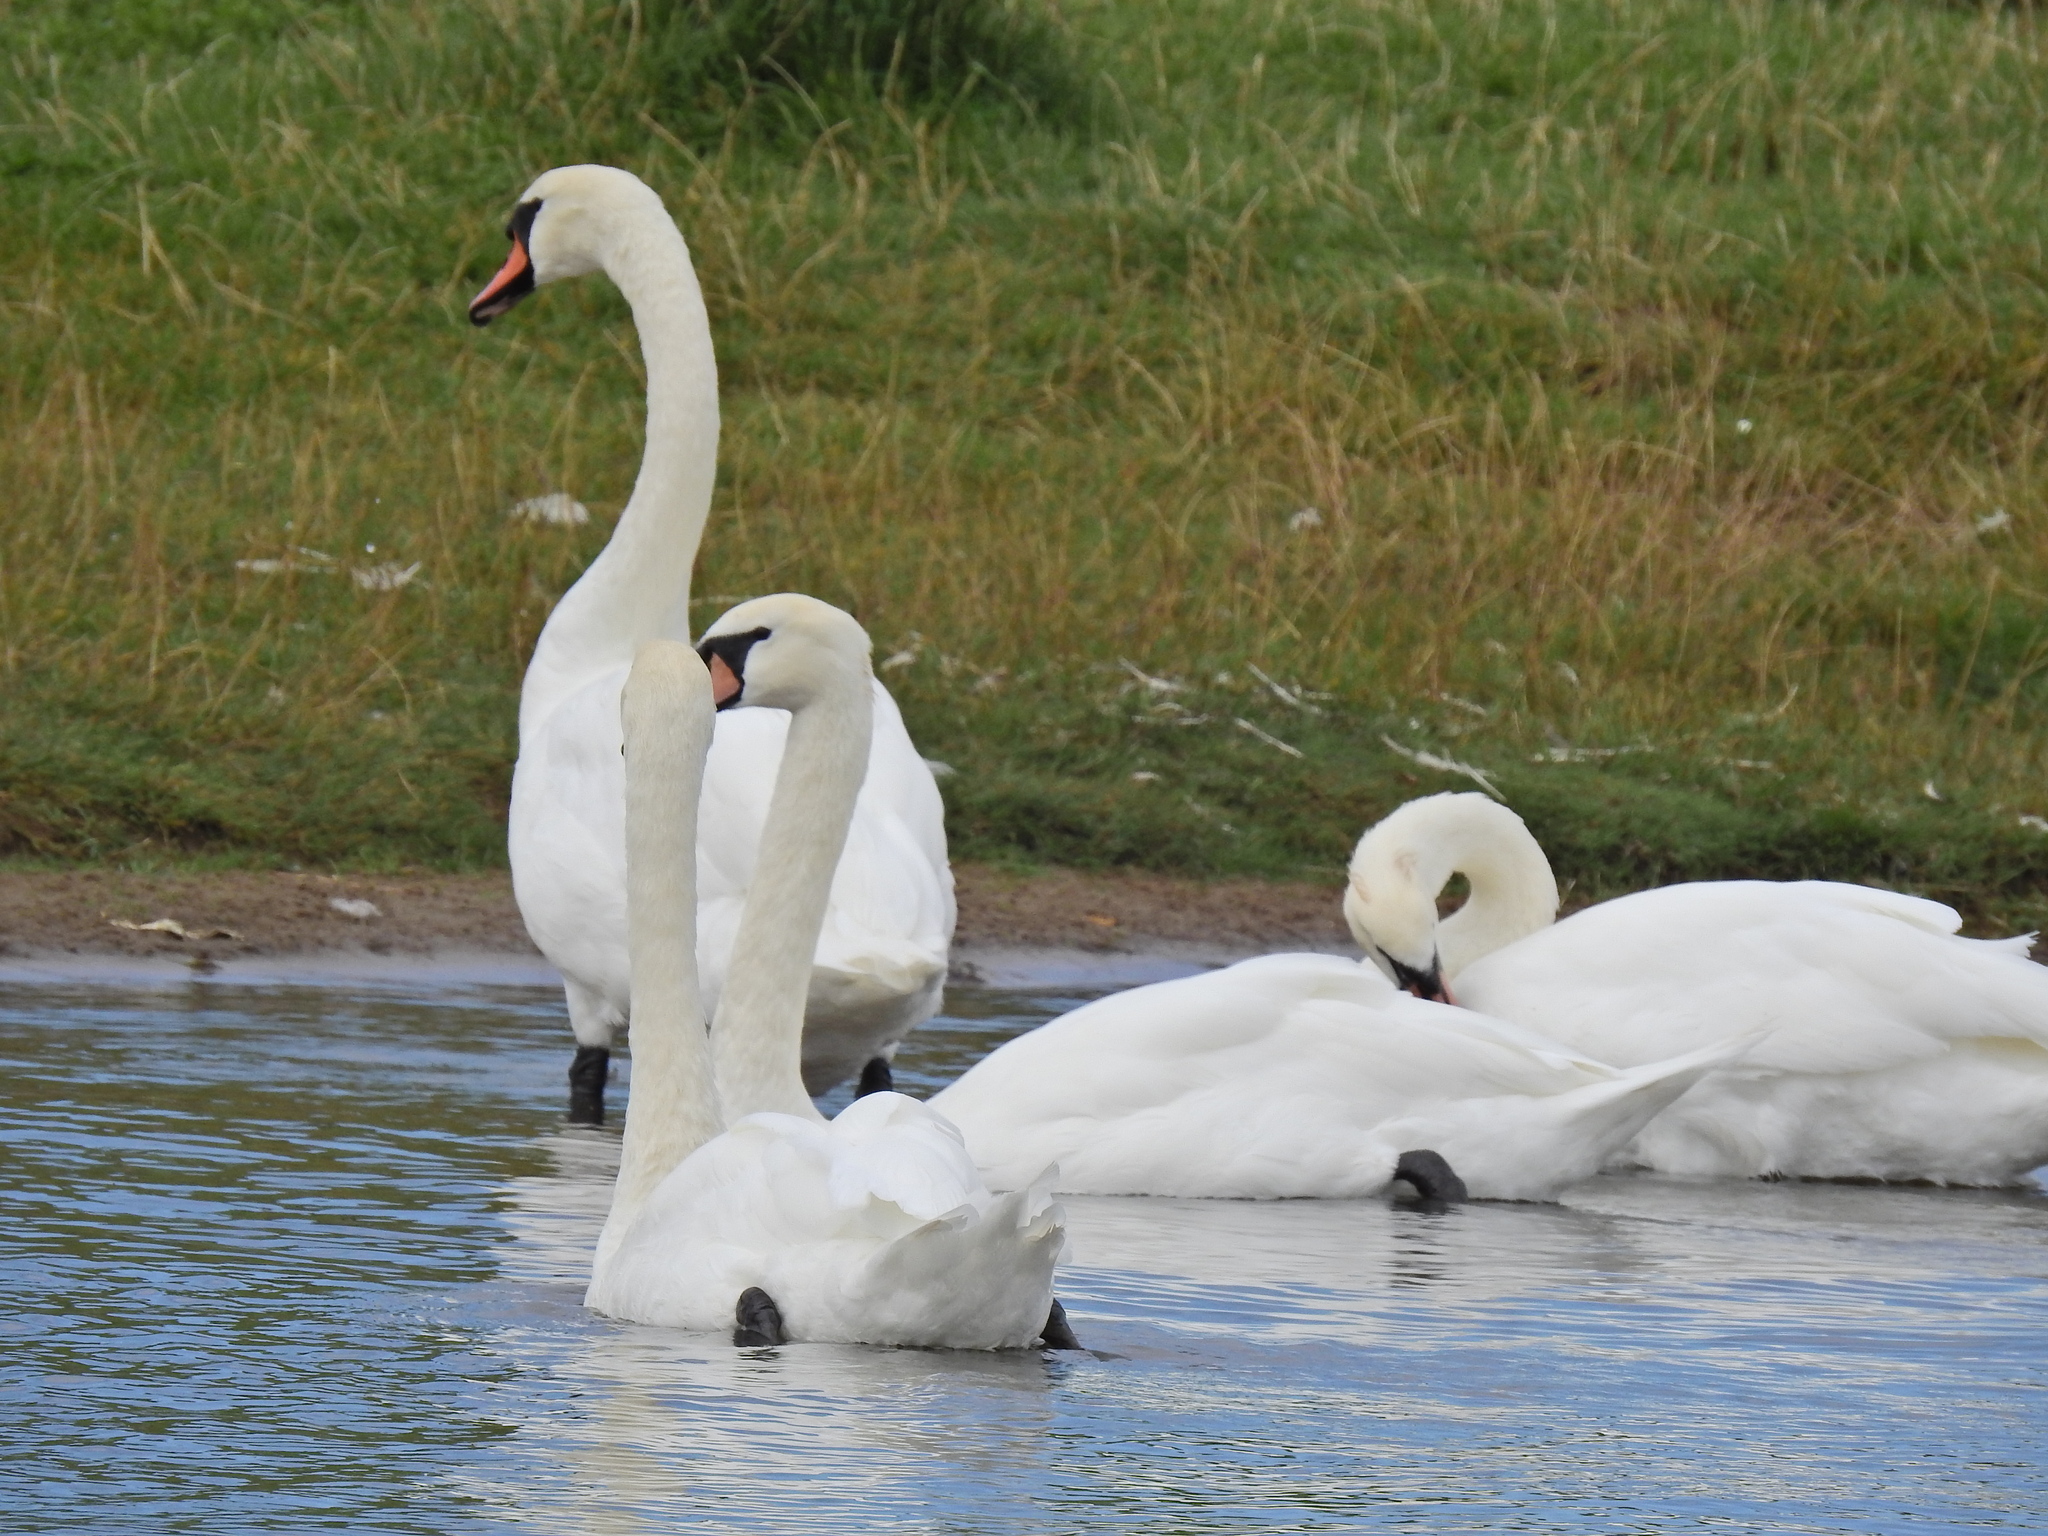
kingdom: Animalia
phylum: Chordata
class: Aves
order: Anseriformes
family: Anatidae
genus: Cygnus
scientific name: Cygnus olor
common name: Mute swan
